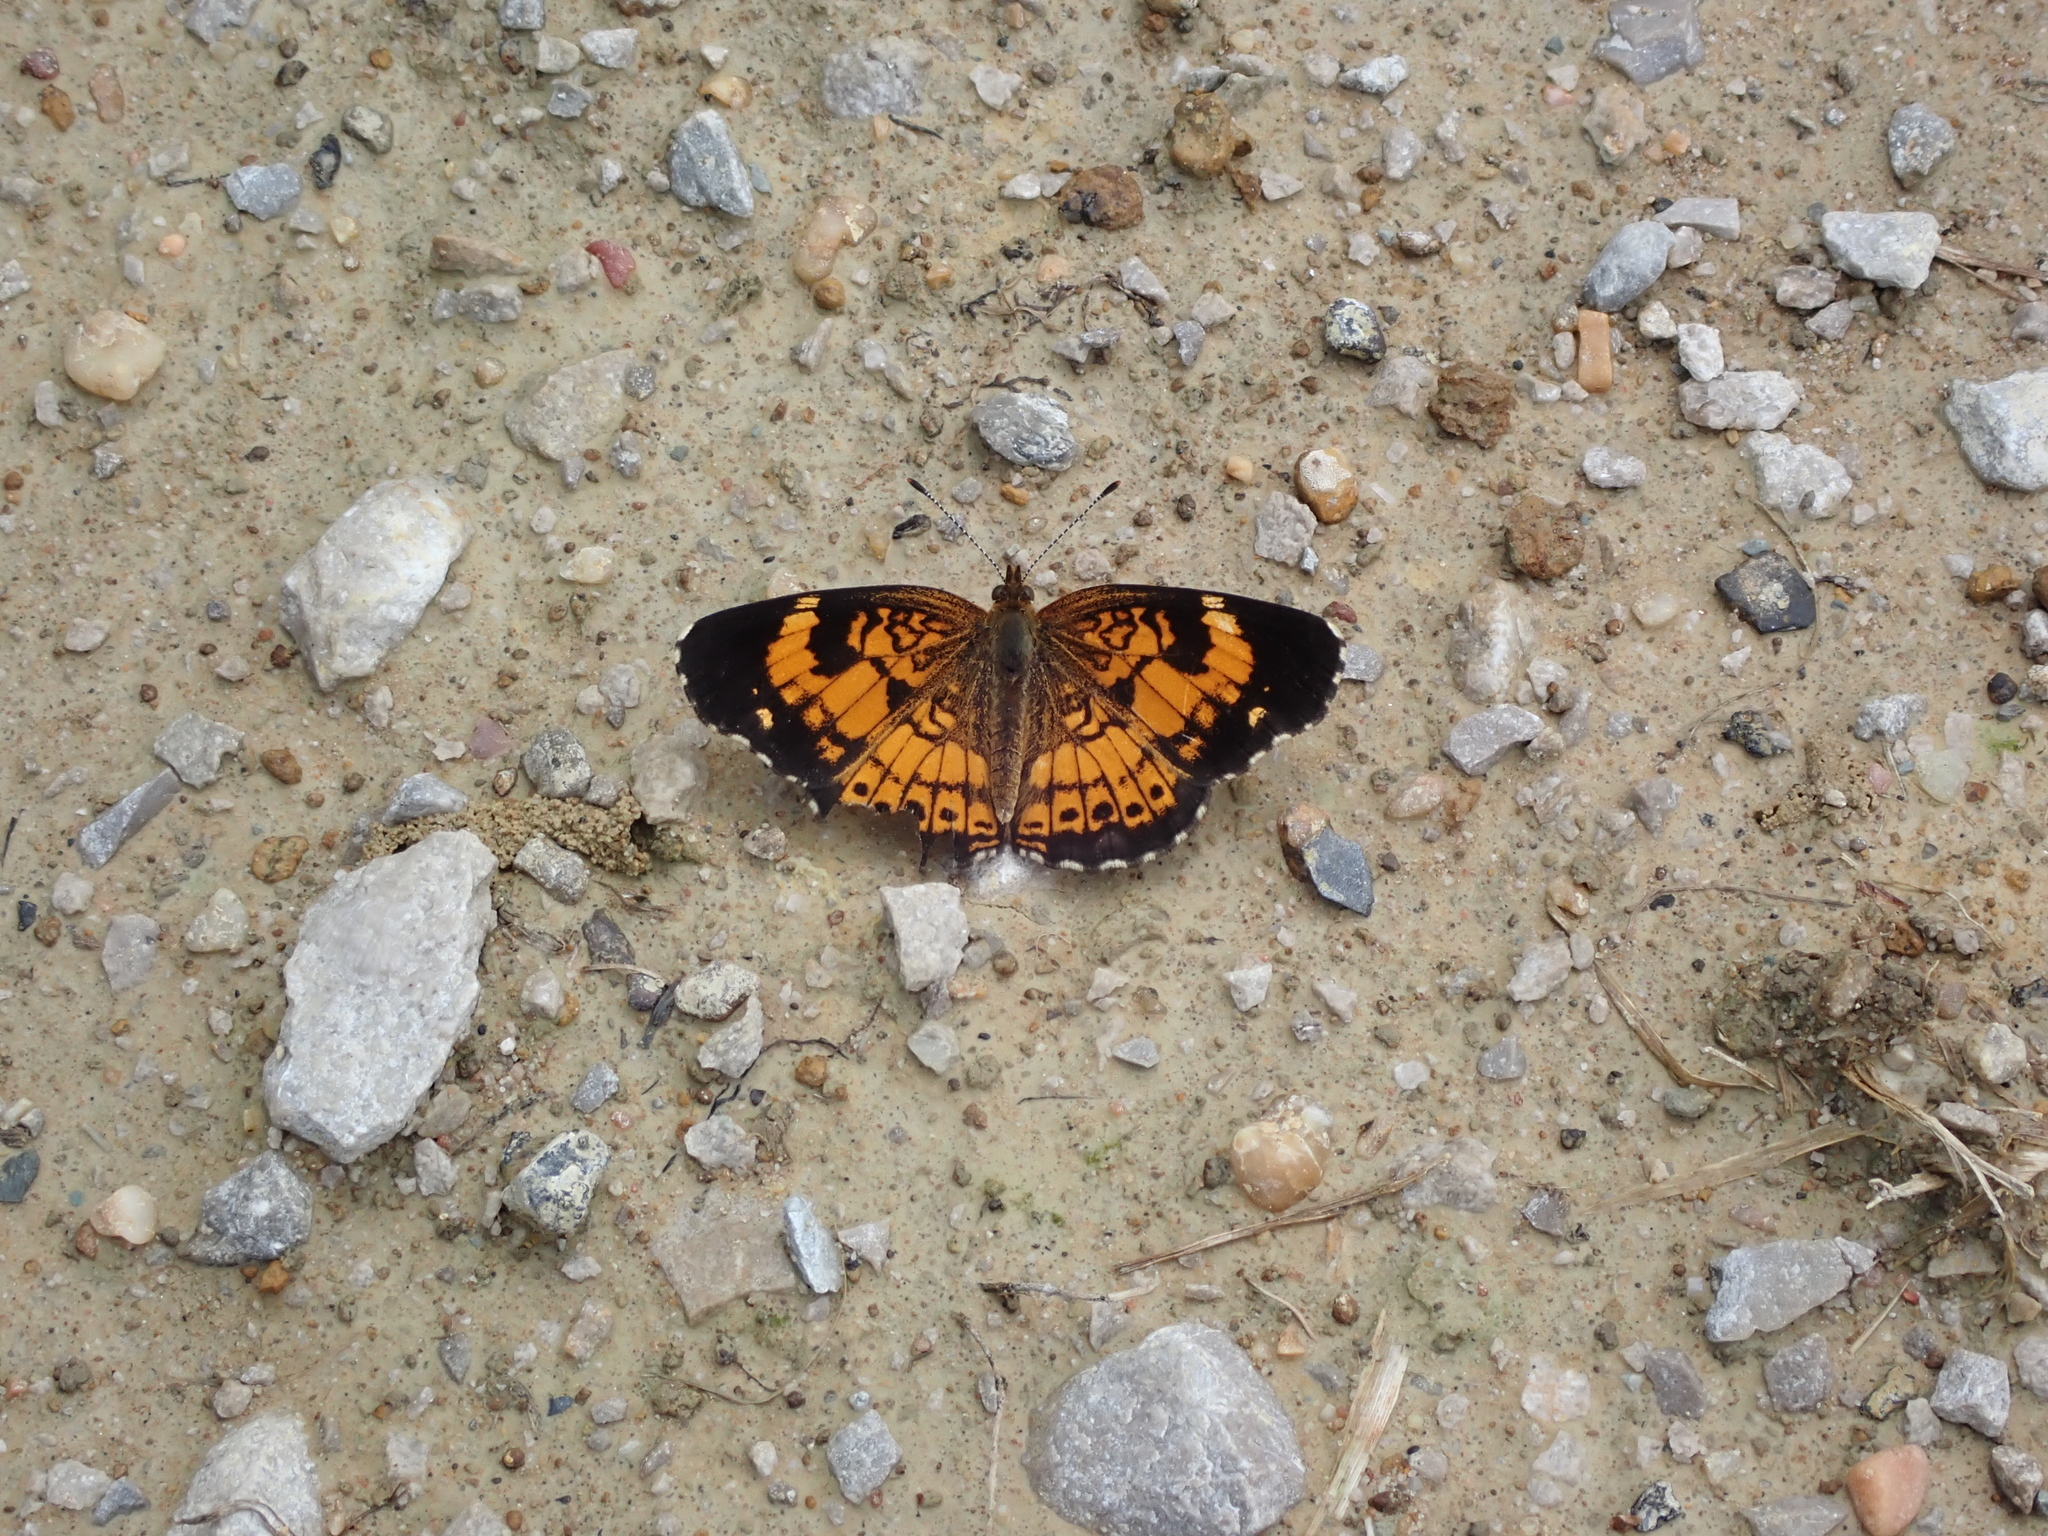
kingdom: Animalia
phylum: Arthropoda
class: Insecta
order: Lepidoptera
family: Nymphalidae
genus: Chlosyne
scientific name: Chlosyne nycteis
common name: Silvery checkerspot
